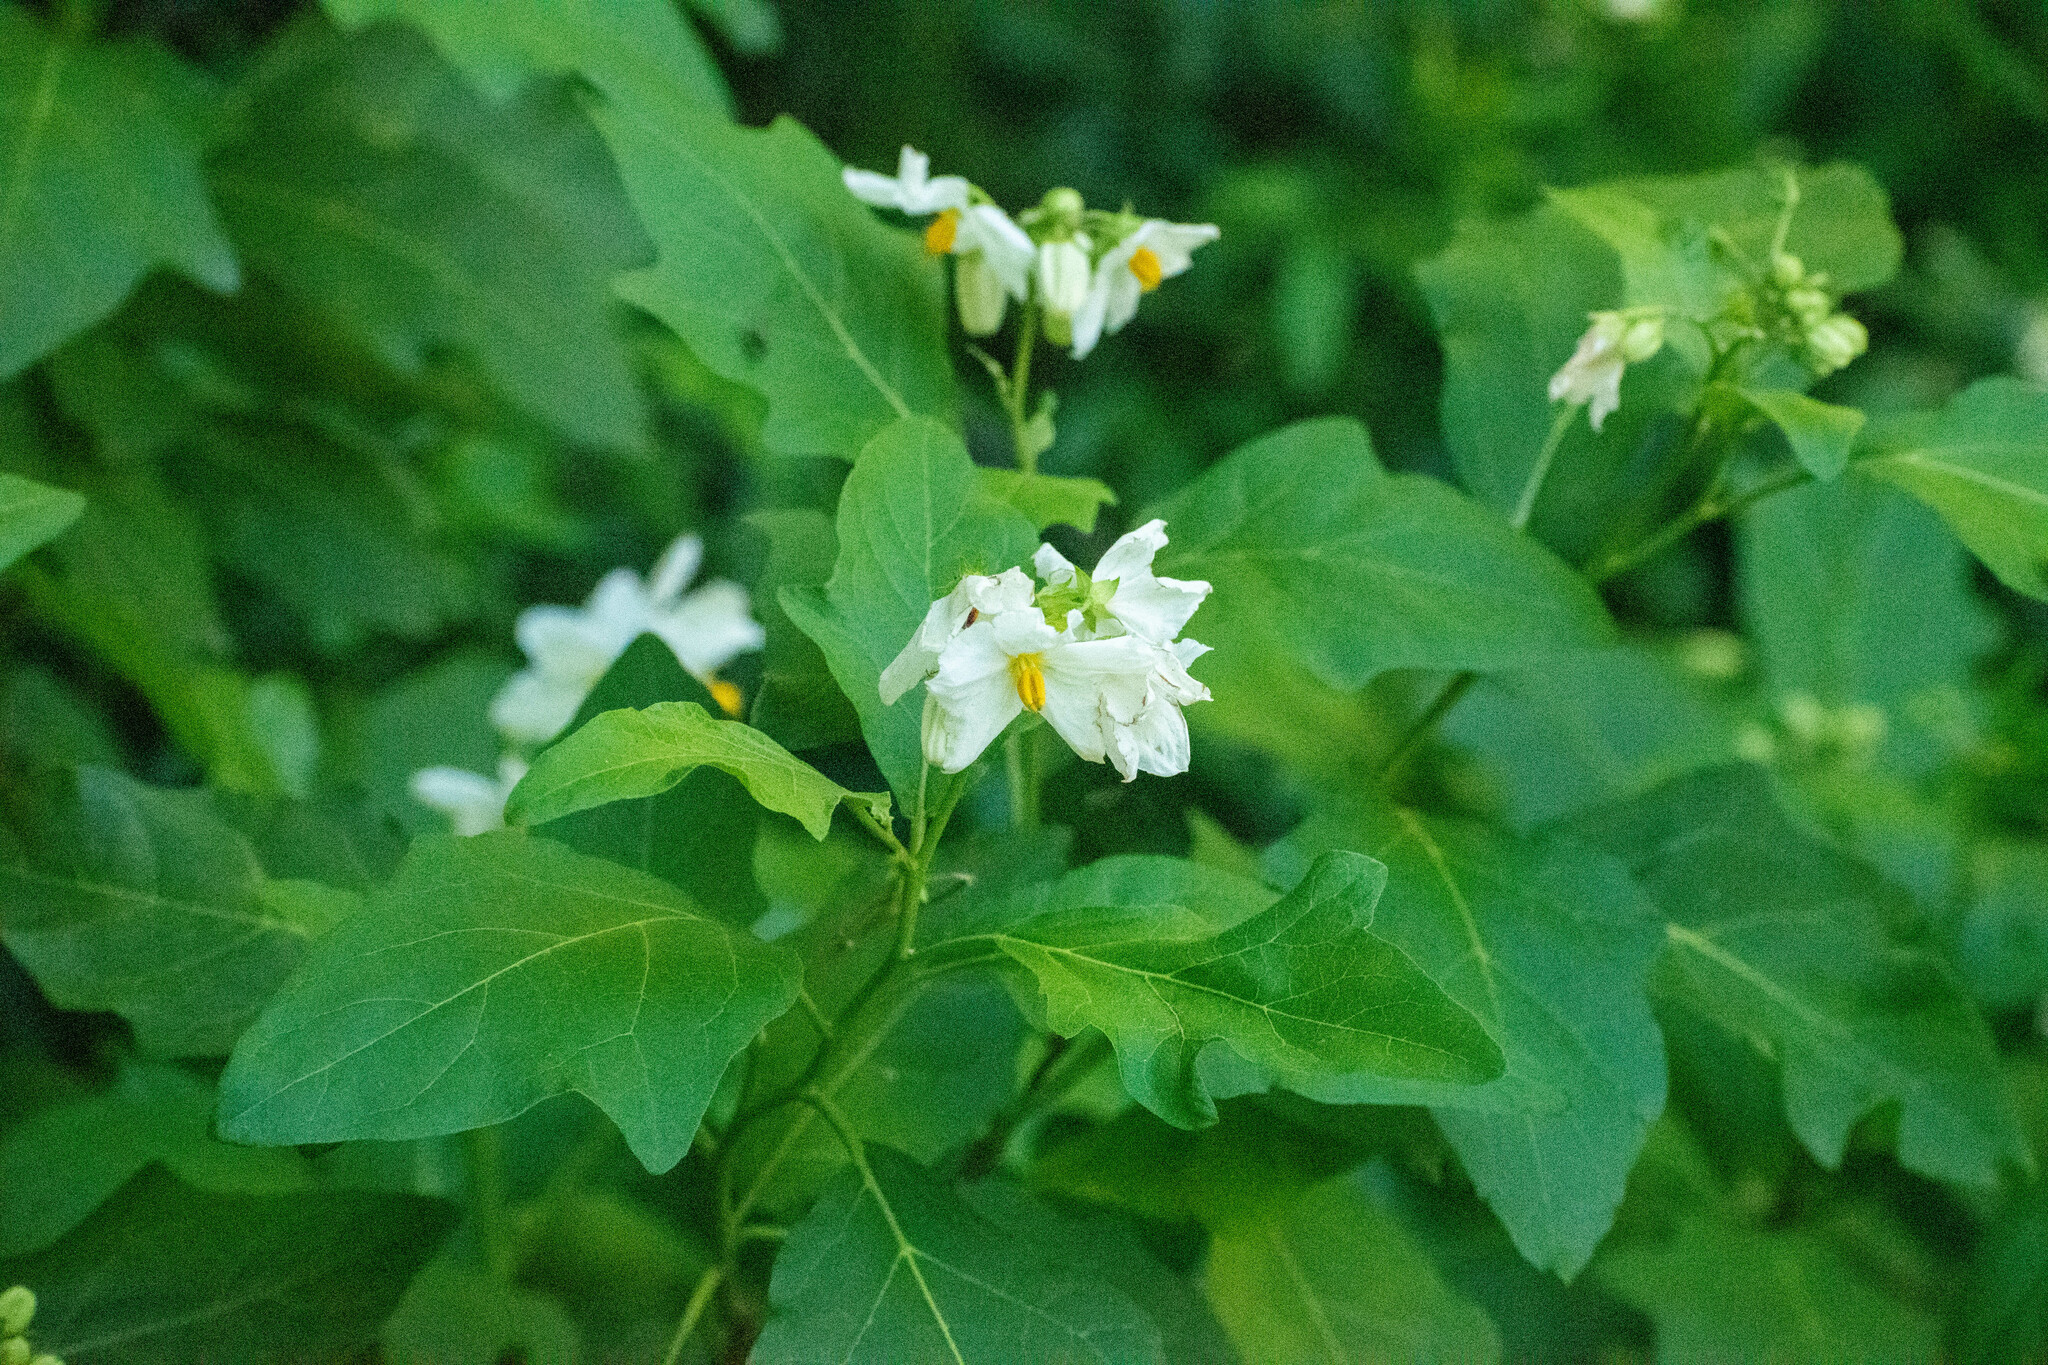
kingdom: Plantae
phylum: Tracheophyta
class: Magnoliopsida
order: Solanales
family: Solanaceae
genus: Solanum
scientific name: Solanum bonariense
